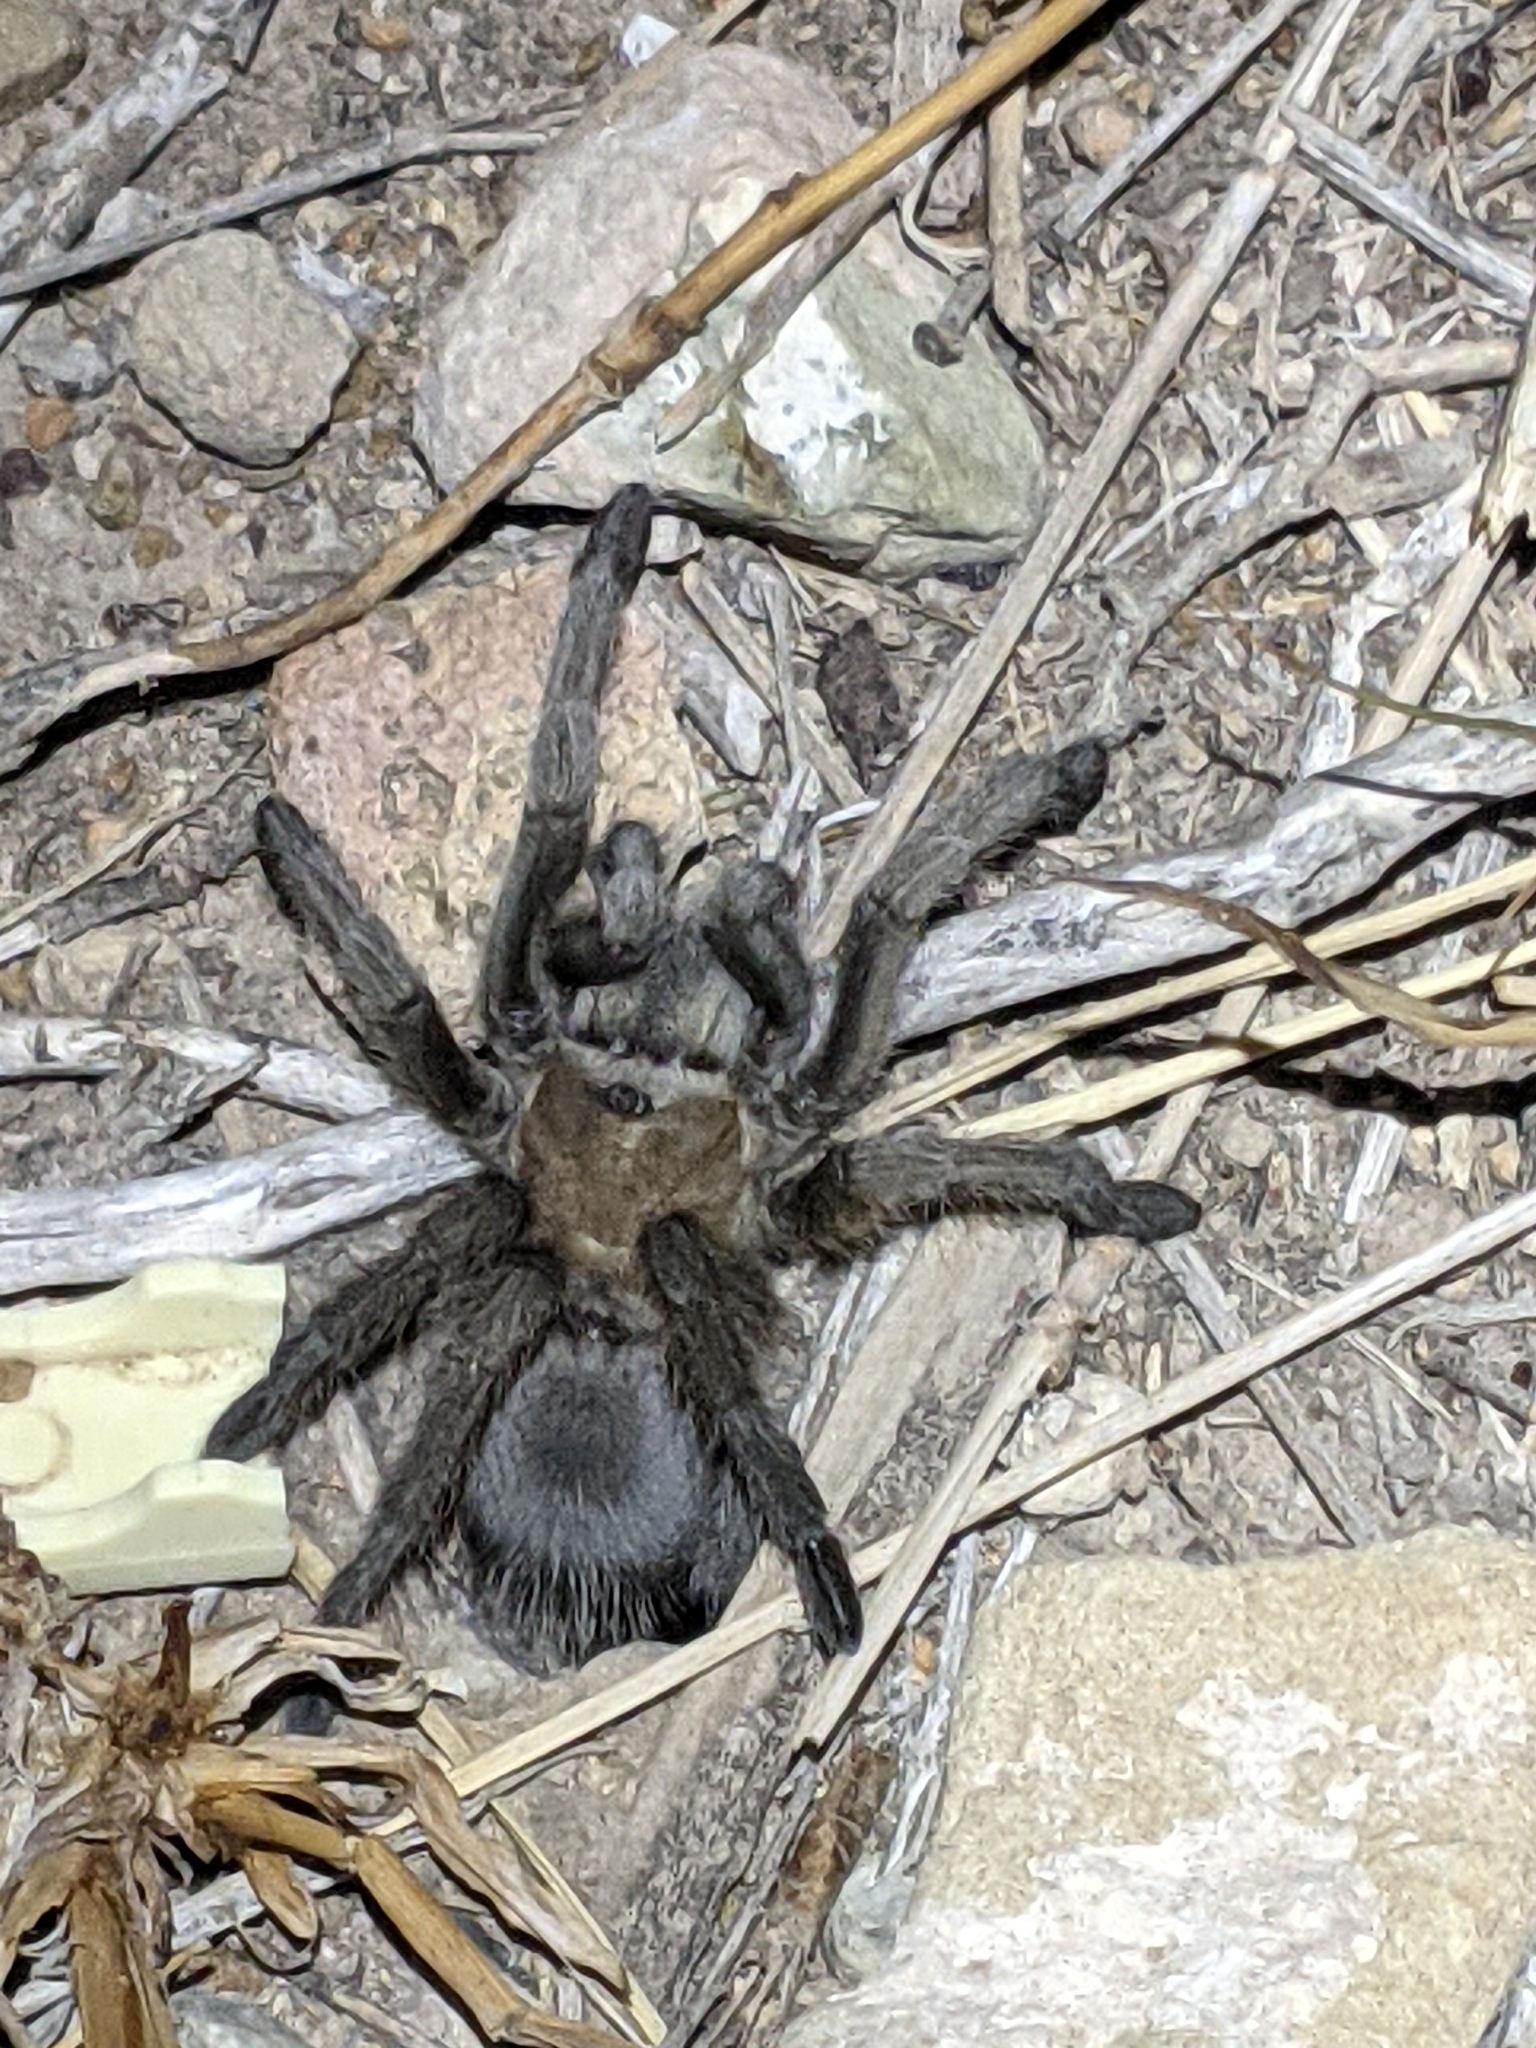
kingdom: Animalia
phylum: Arthropoda
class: Arachnida
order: Araneae
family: Theraphosidae
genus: Aphonopelma
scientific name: Aphonopelma gabeli
